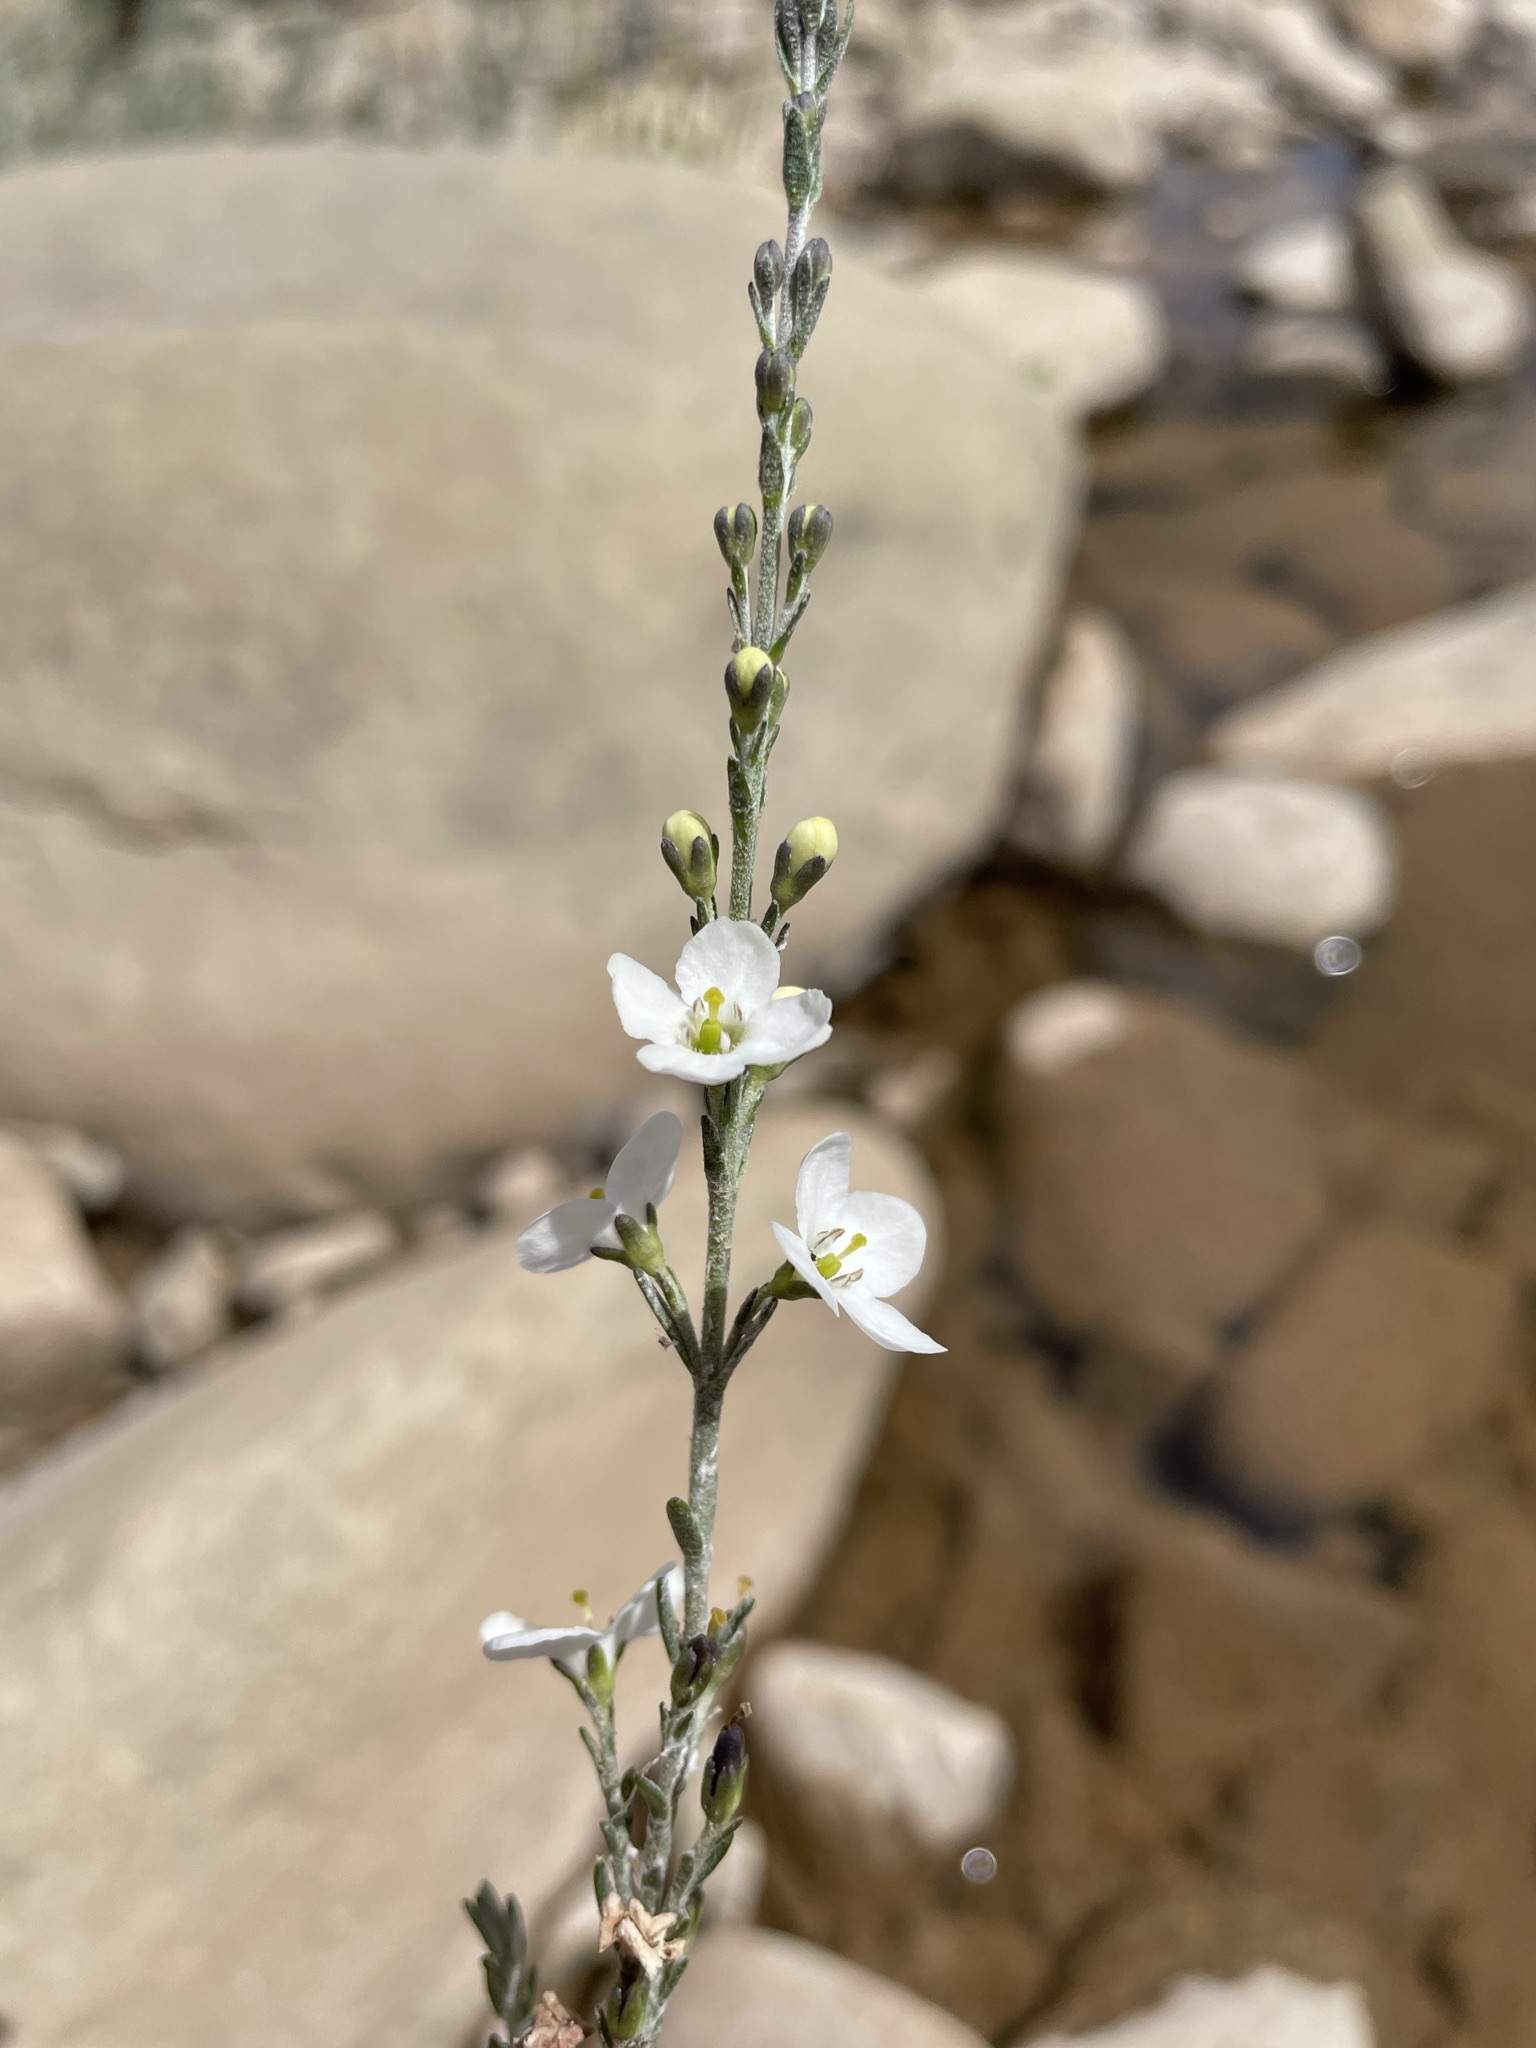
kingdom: Plantae
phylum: Tracheophyta
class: Magnoliopsida
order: Lamiales
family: Scrophulariaceae
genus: Buddleja
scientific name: Buddleja virgata
